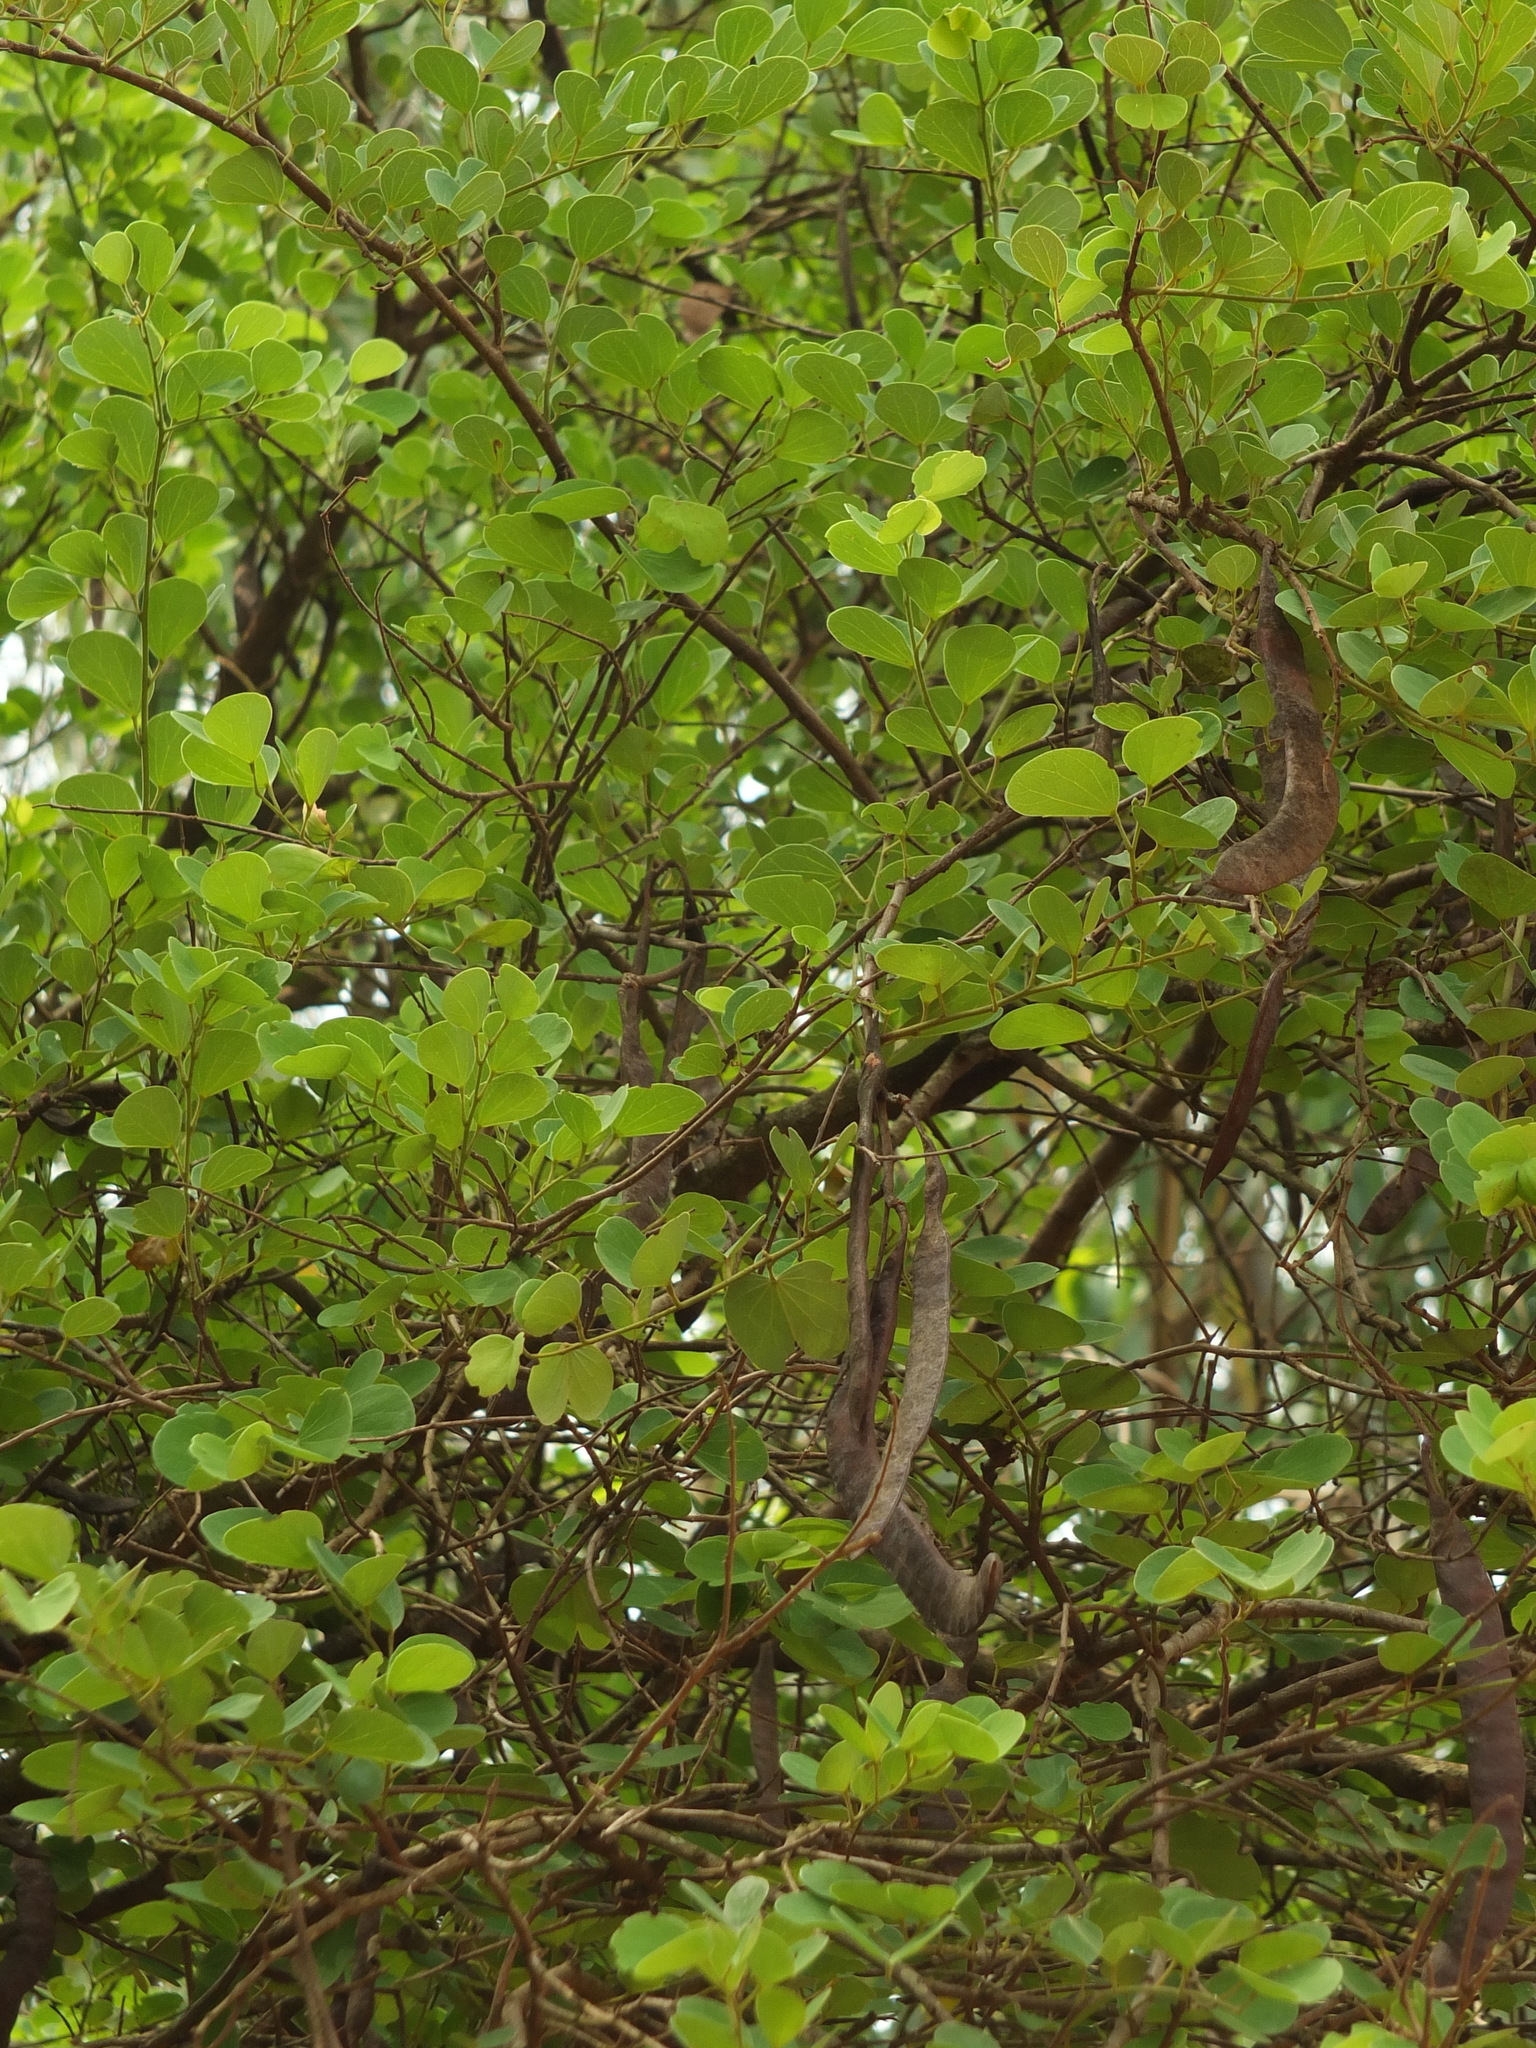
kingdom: Plantae
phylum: Tracheophyta
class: Magnoliopsida
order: Fabales
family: Fabaceae
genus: Bauhinia
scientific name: Bauhinia racemosa
